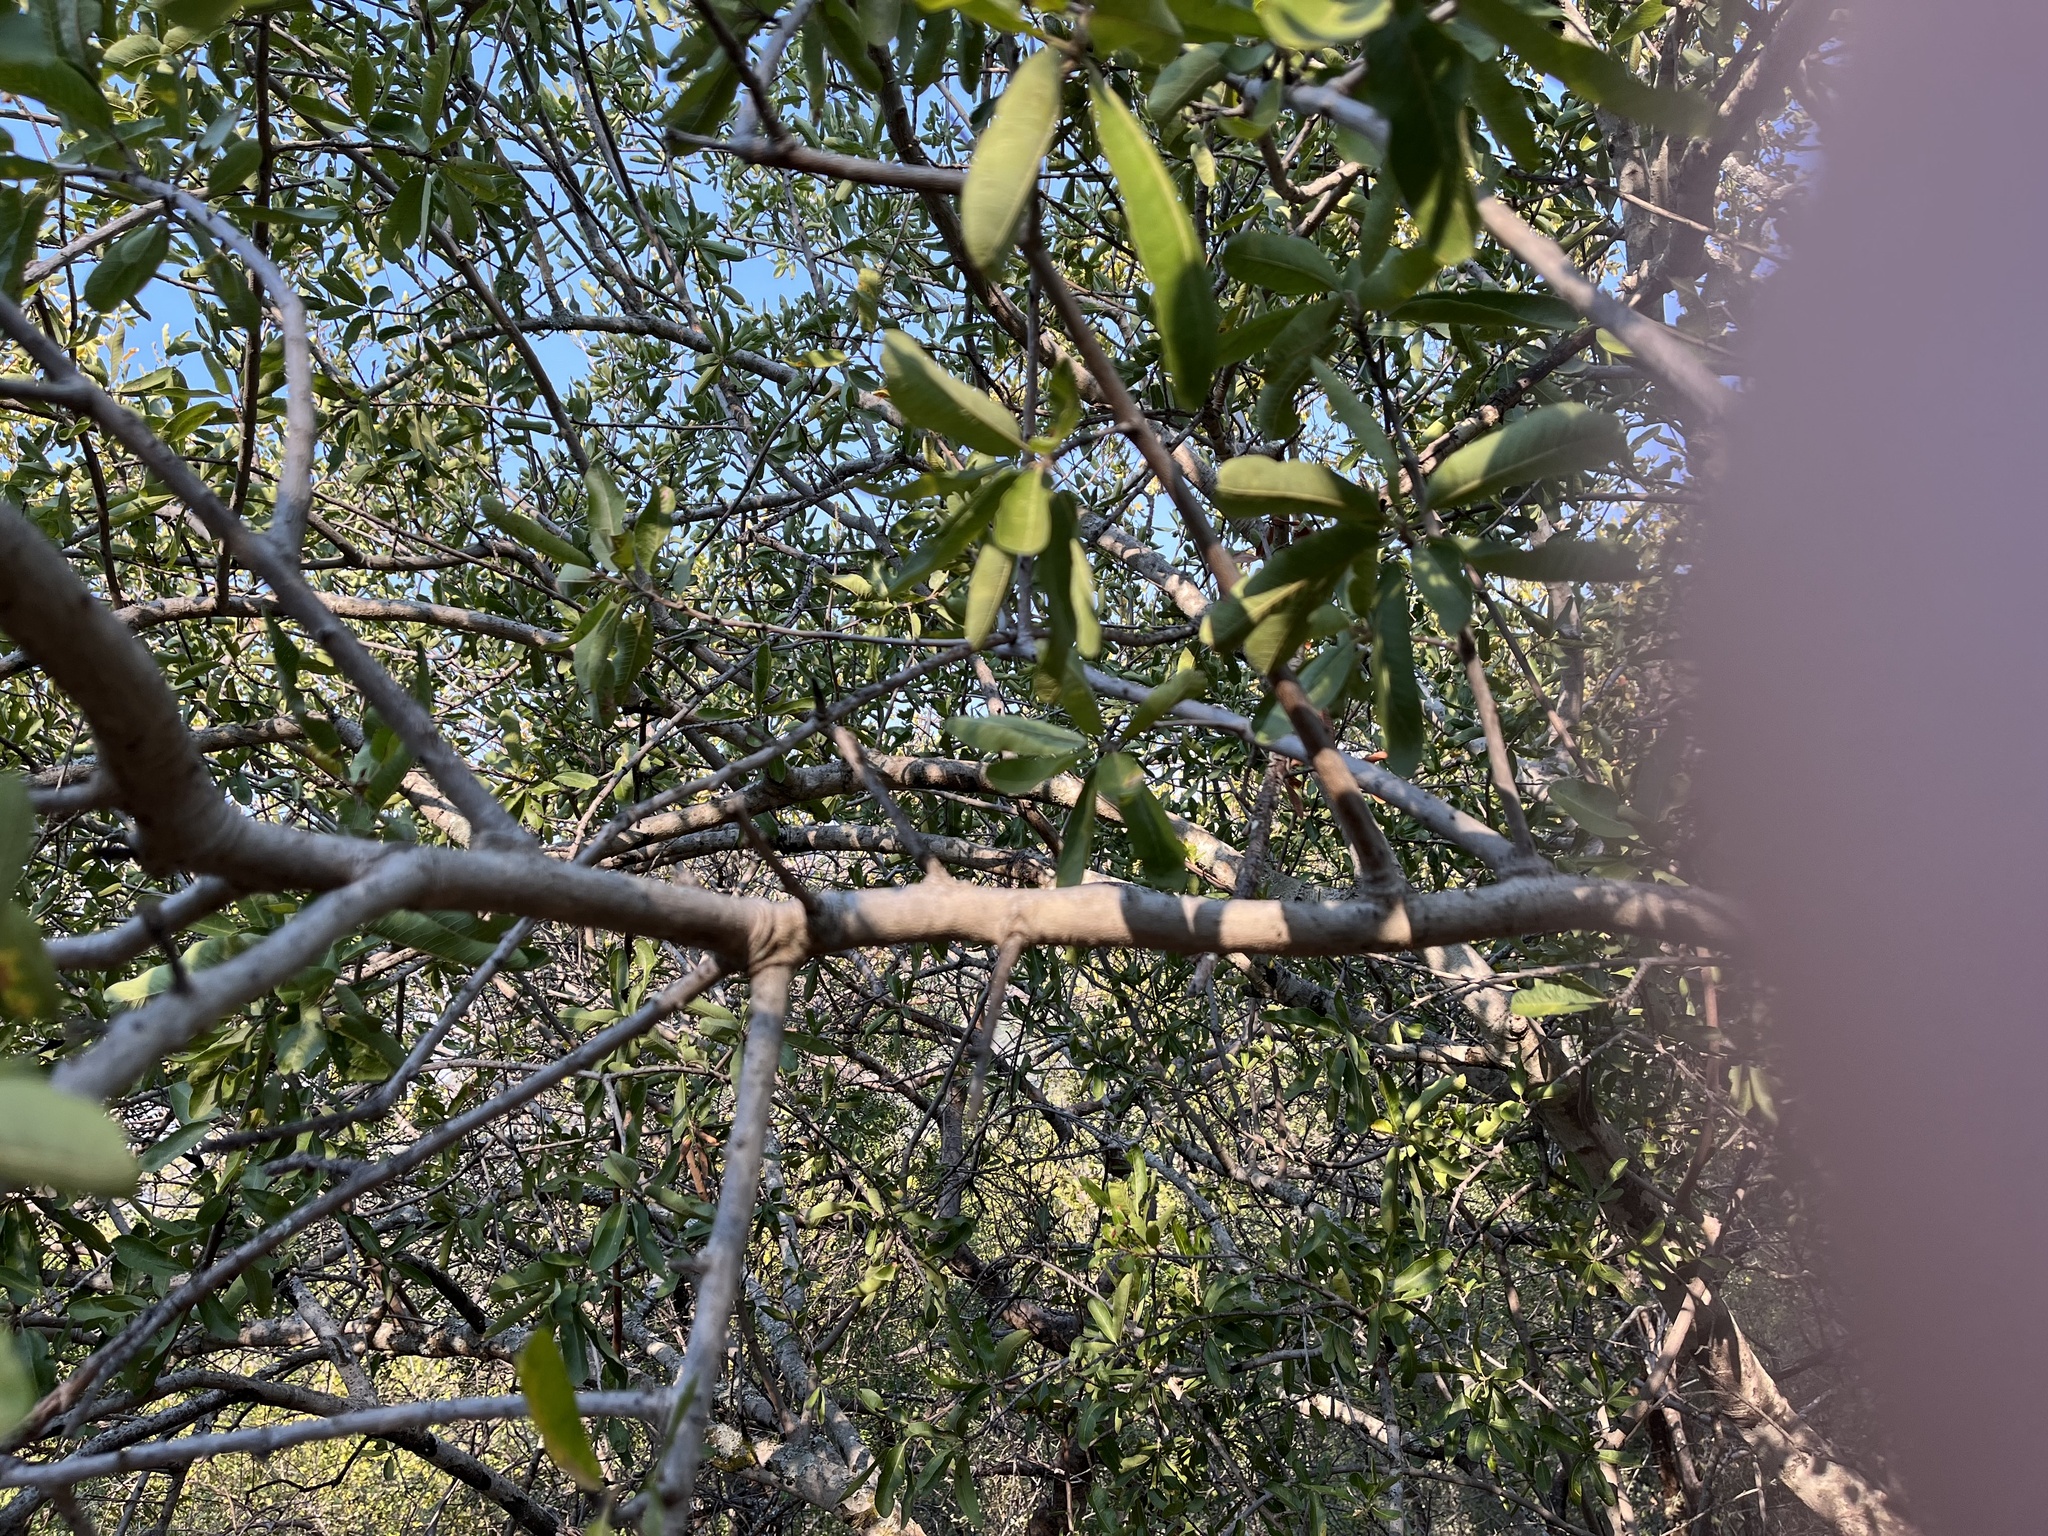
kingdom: Plantae
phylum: Tracheophyta
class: Magnoliopsida
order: Sapindales
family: Sapindaceae
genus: Pappea
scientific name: Pappea capensis
